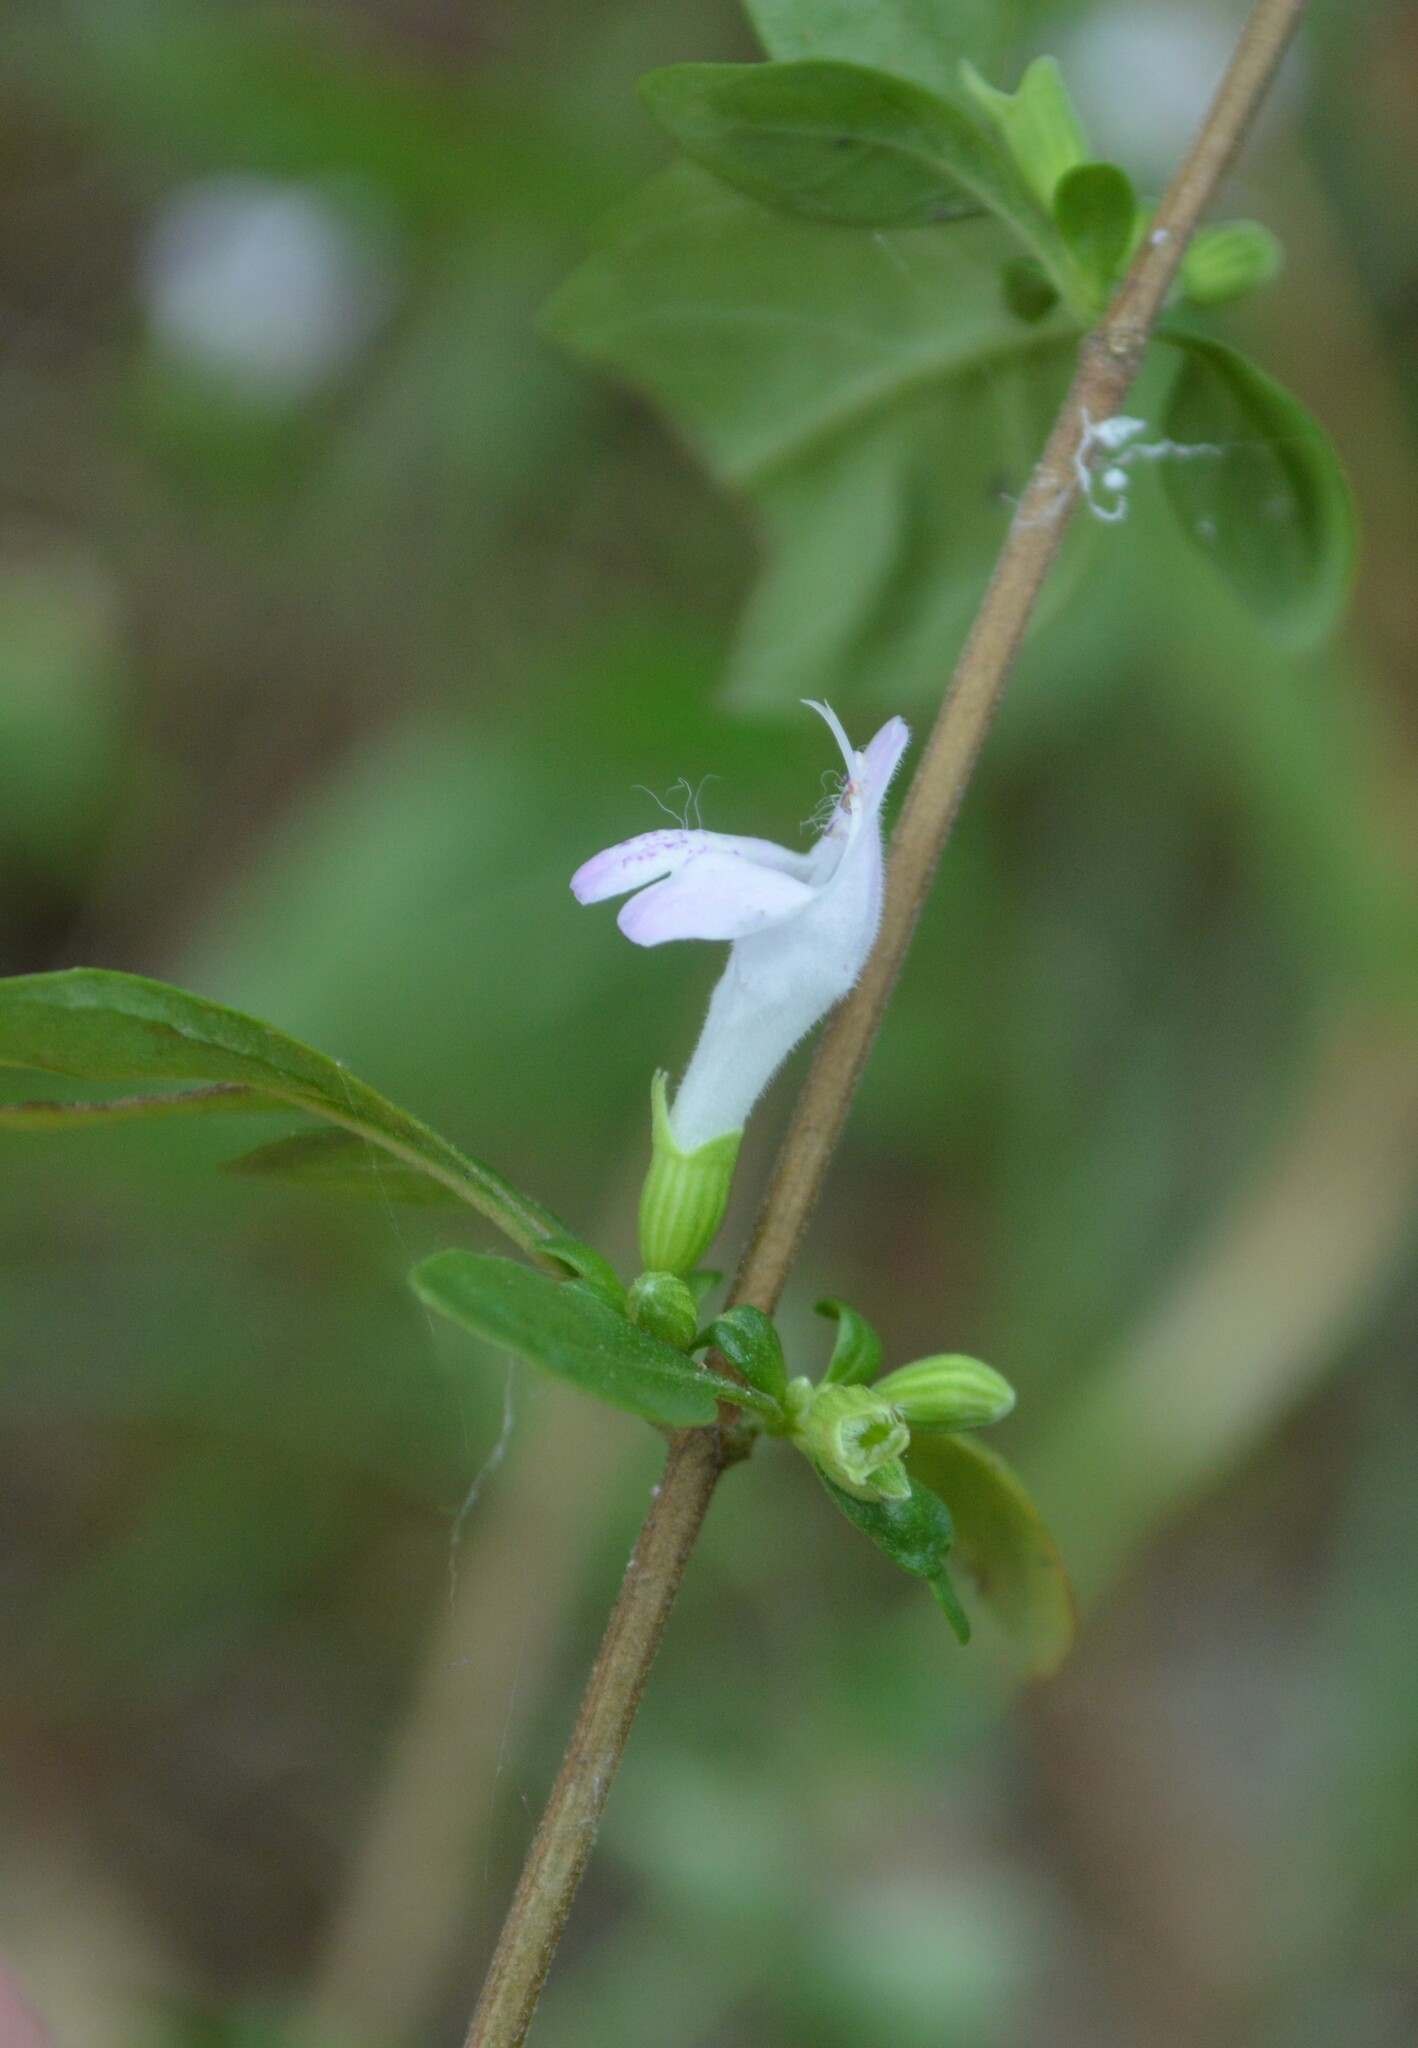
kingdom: Plantae
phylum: Tracheophyta
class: Magnoliopsida
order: Lamiales
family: Lamiaceae
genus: Clinopodium
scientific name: Clinopodium carolinianum
